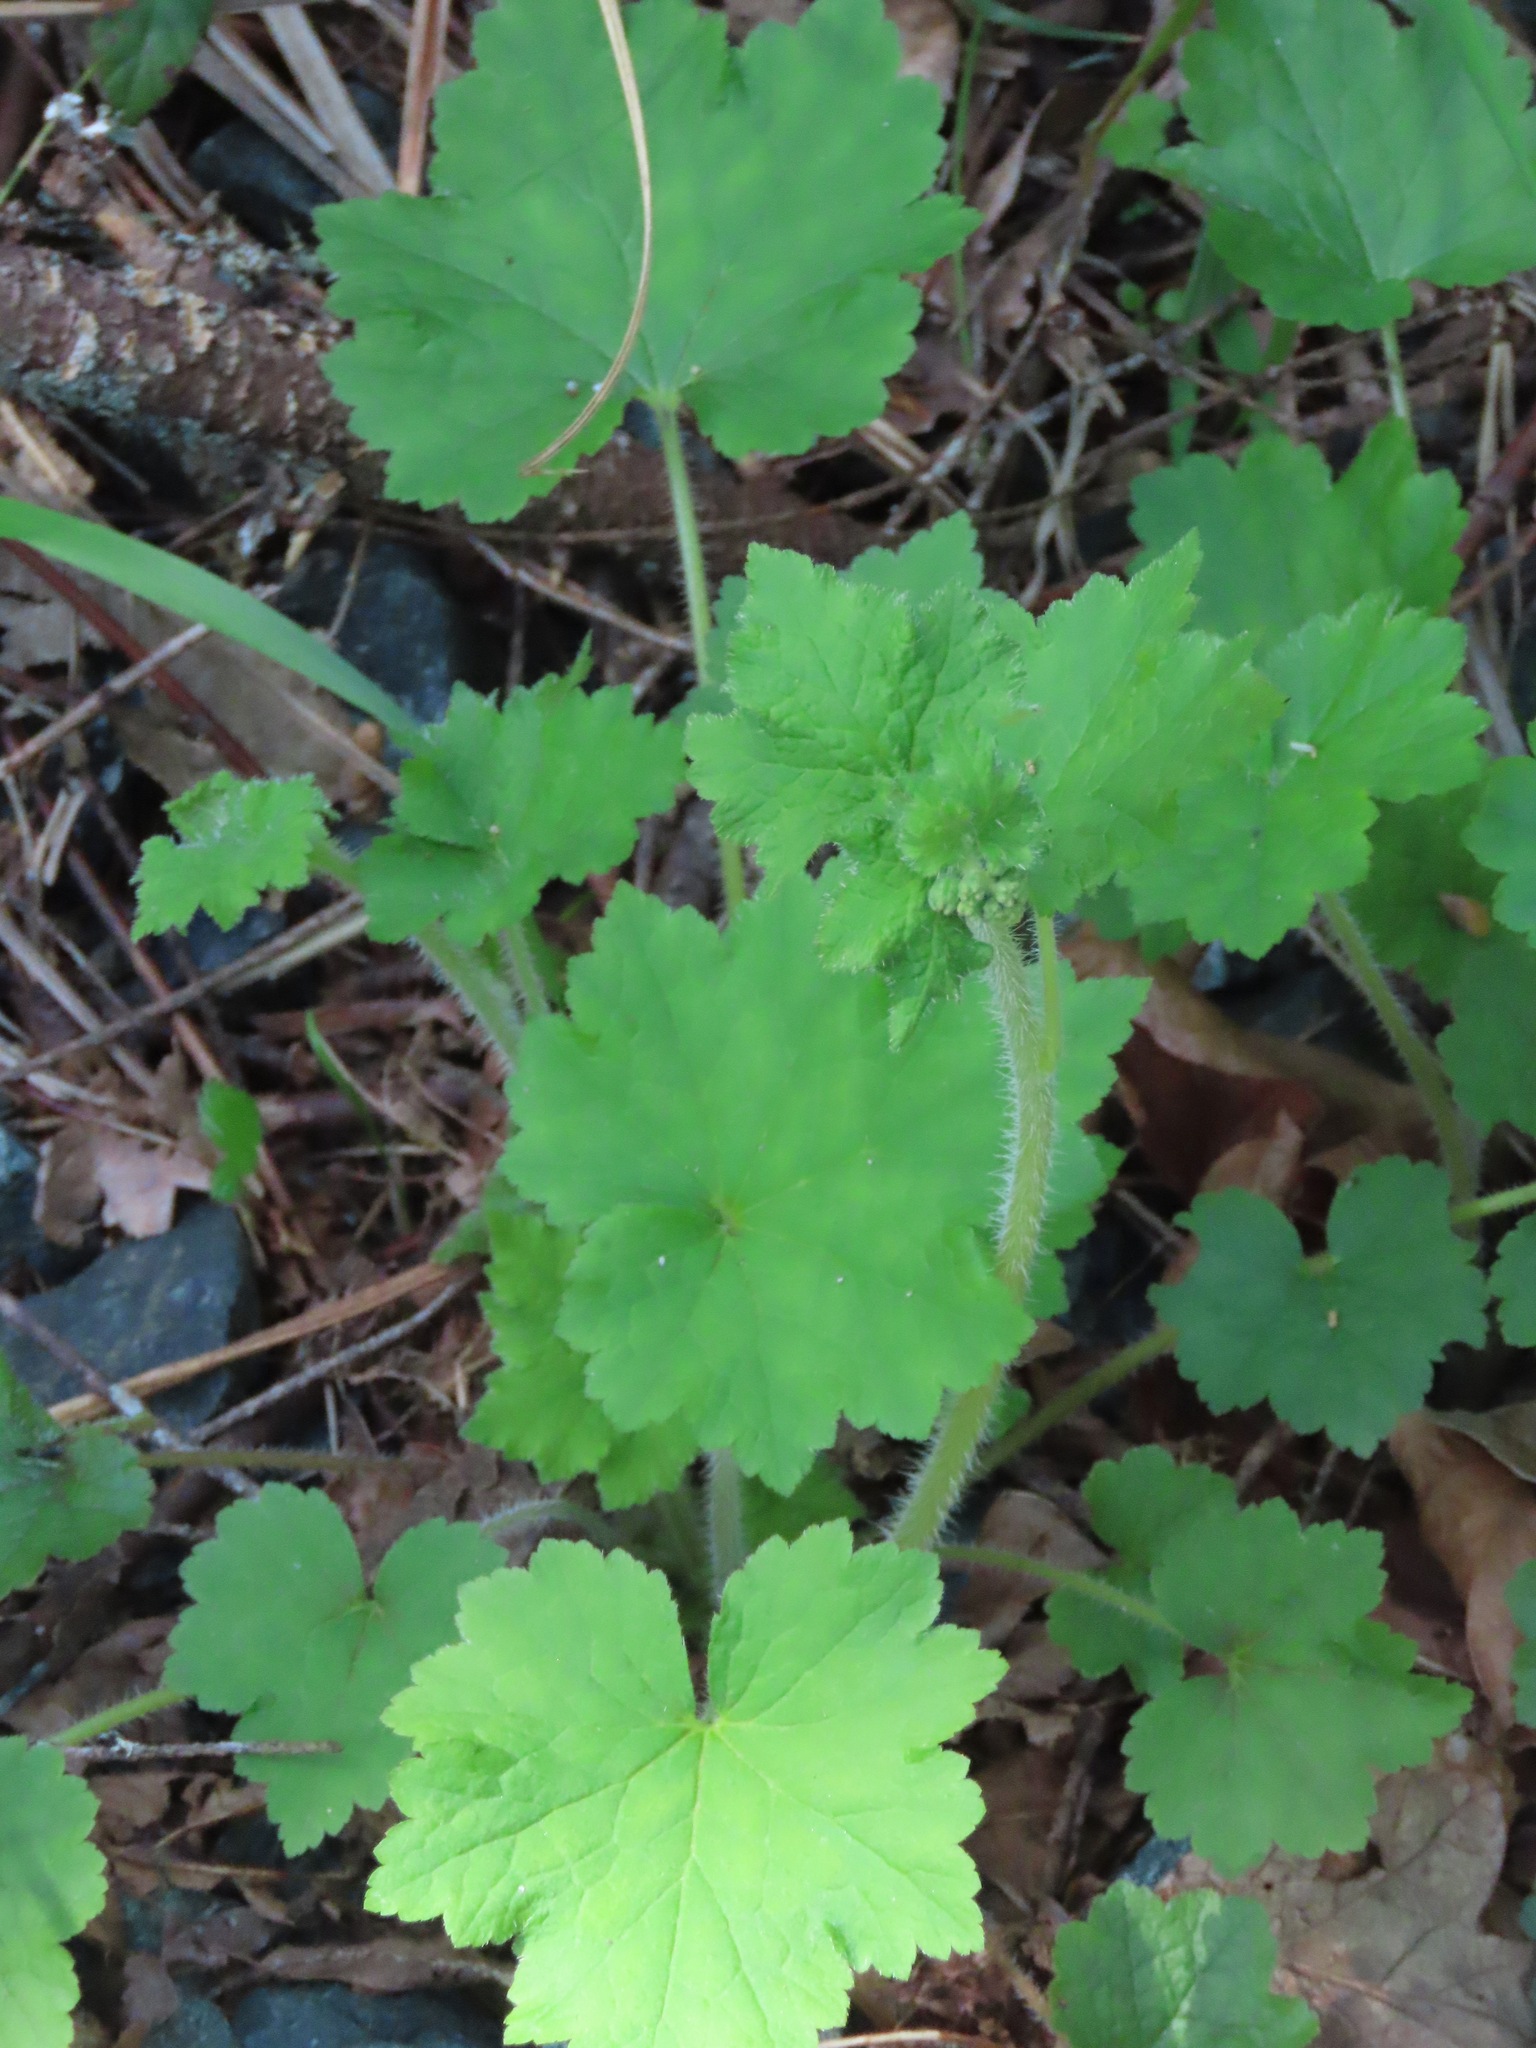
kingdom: Plantae
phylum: Tracheophyta
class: Magnoliopsida
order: Saxifragales
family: Saxifragaceae
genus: Tellima
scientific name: Tellima grandiflora
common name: Fringecups
